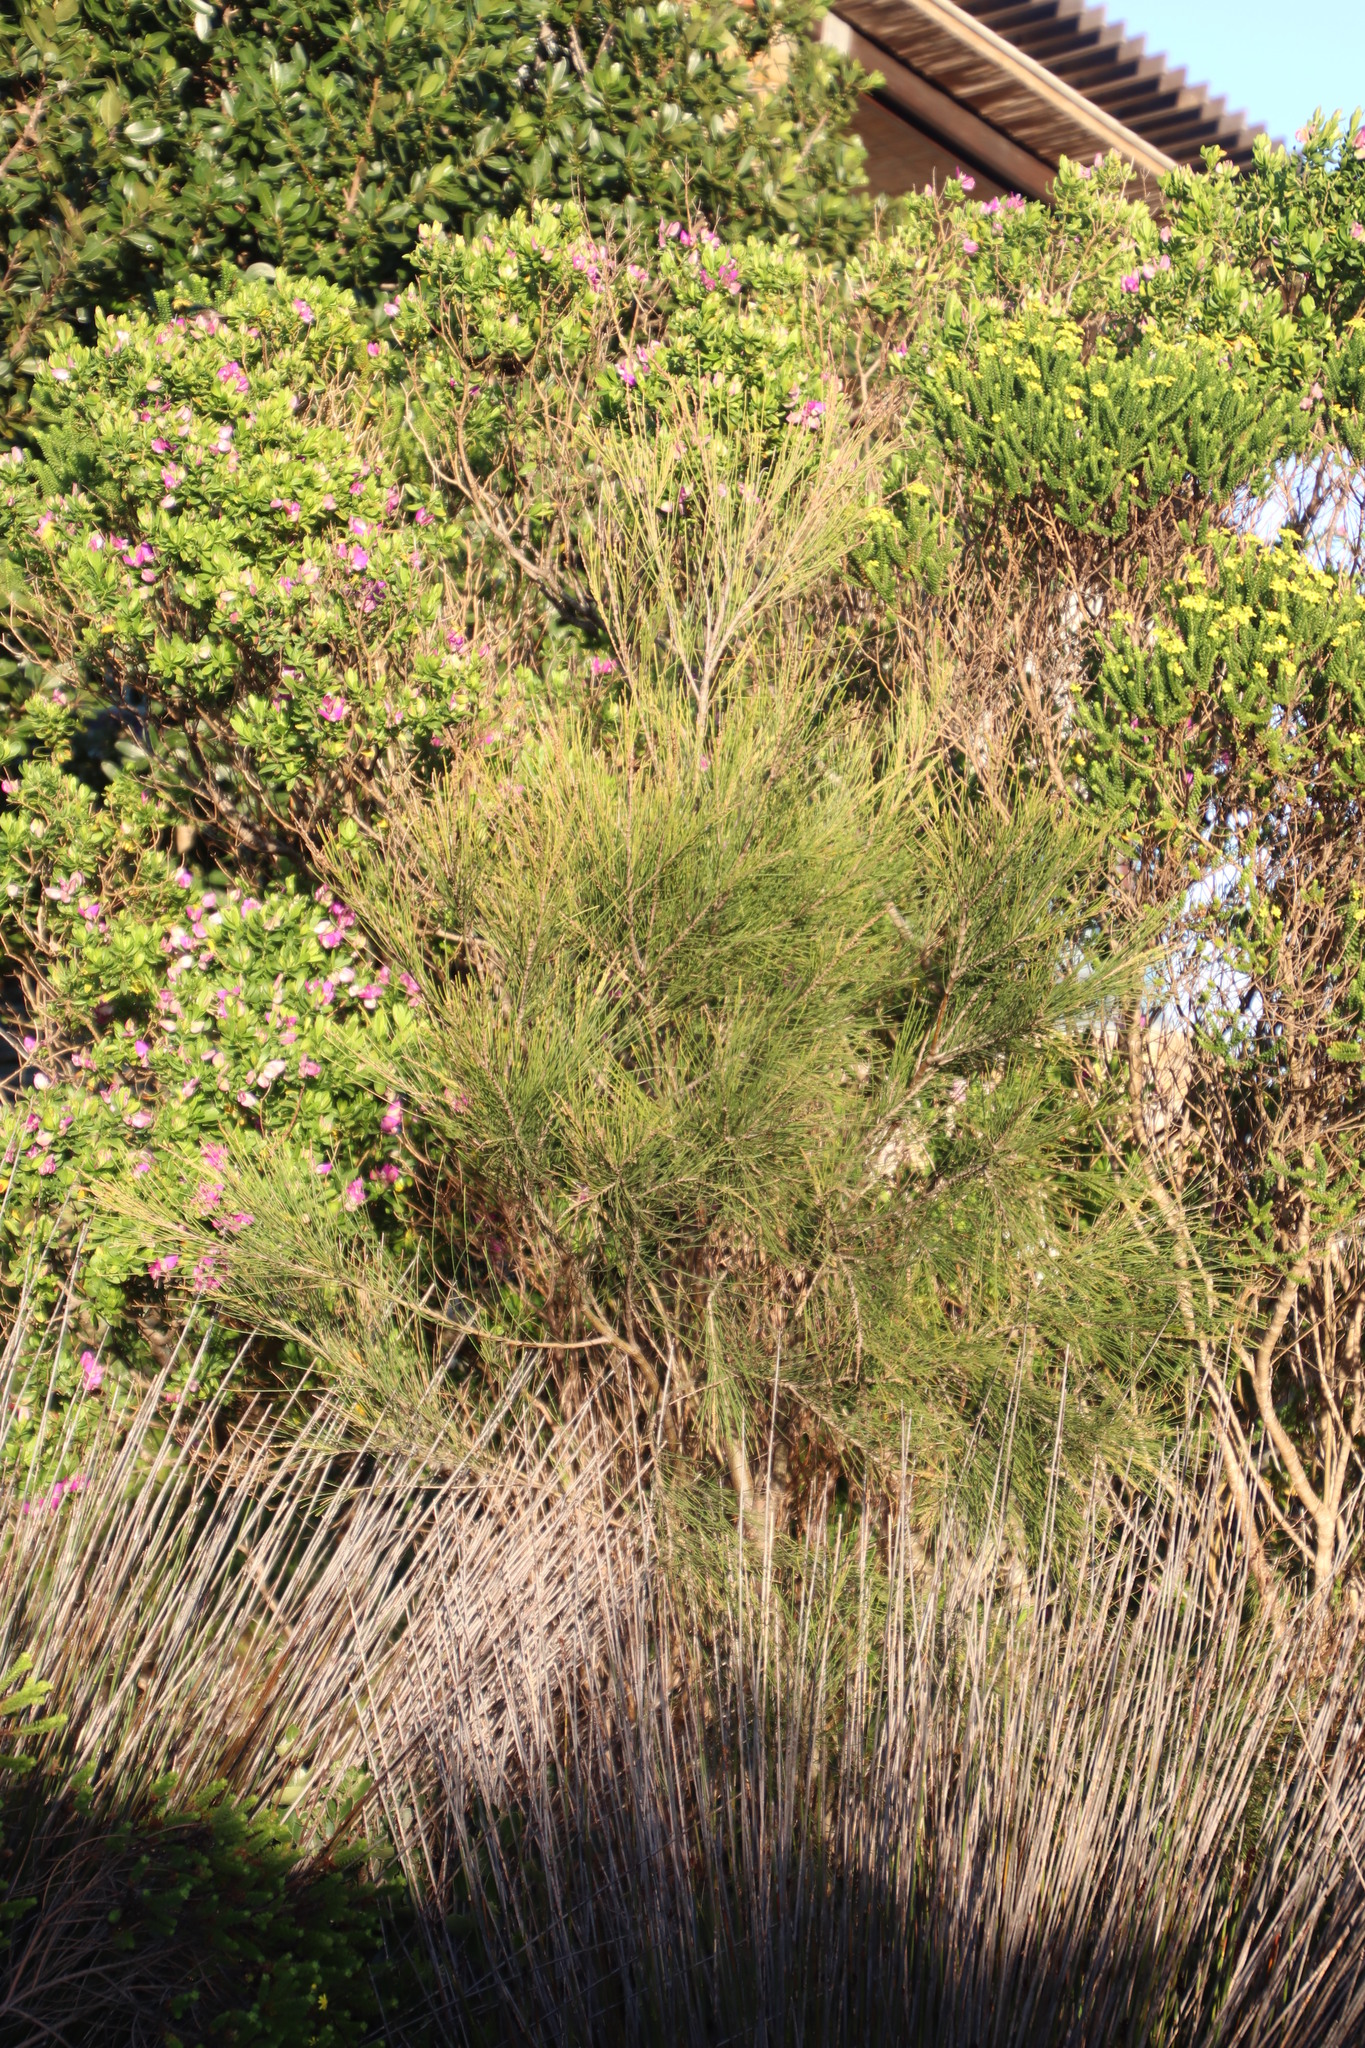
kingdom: Plantae
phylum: Tracheophyta
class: Magnoliopsida
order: Fagales
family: Casuarinaceae
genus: Casuarina
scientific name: Casuarina cunninghamiana
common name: River sheoak
